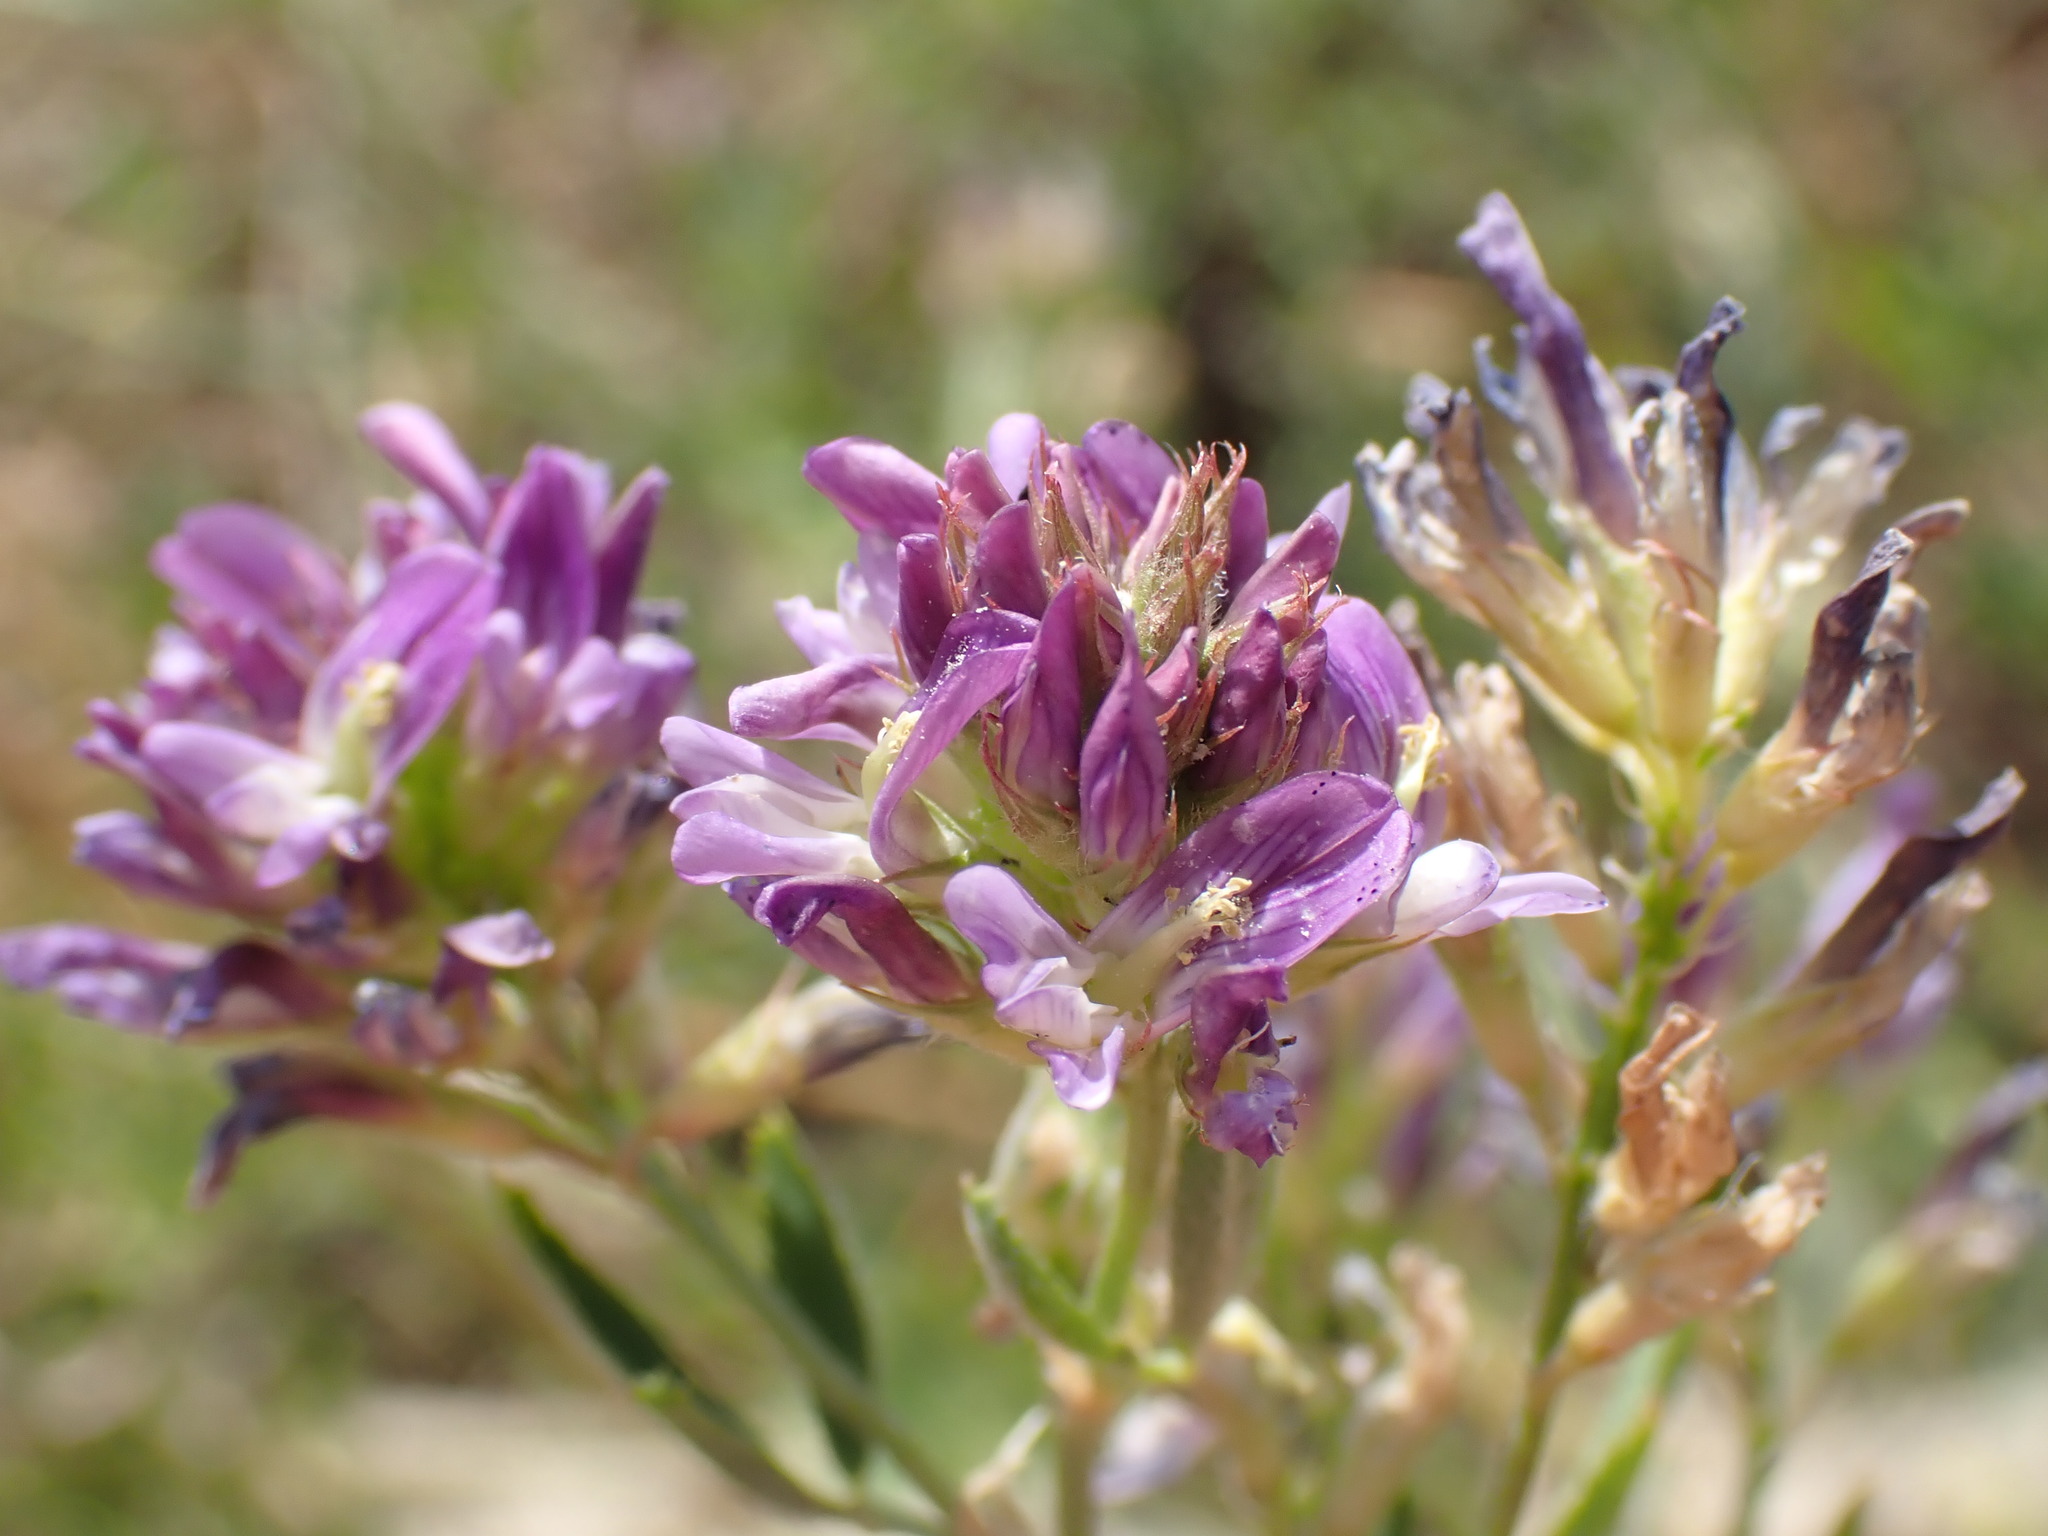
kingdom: Plantae
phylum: Tracheophyta
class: Magnoliopsida
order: Fabales
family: Fabaceae
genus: Medicago
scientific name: Medicago sativa
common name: Alfalfa
